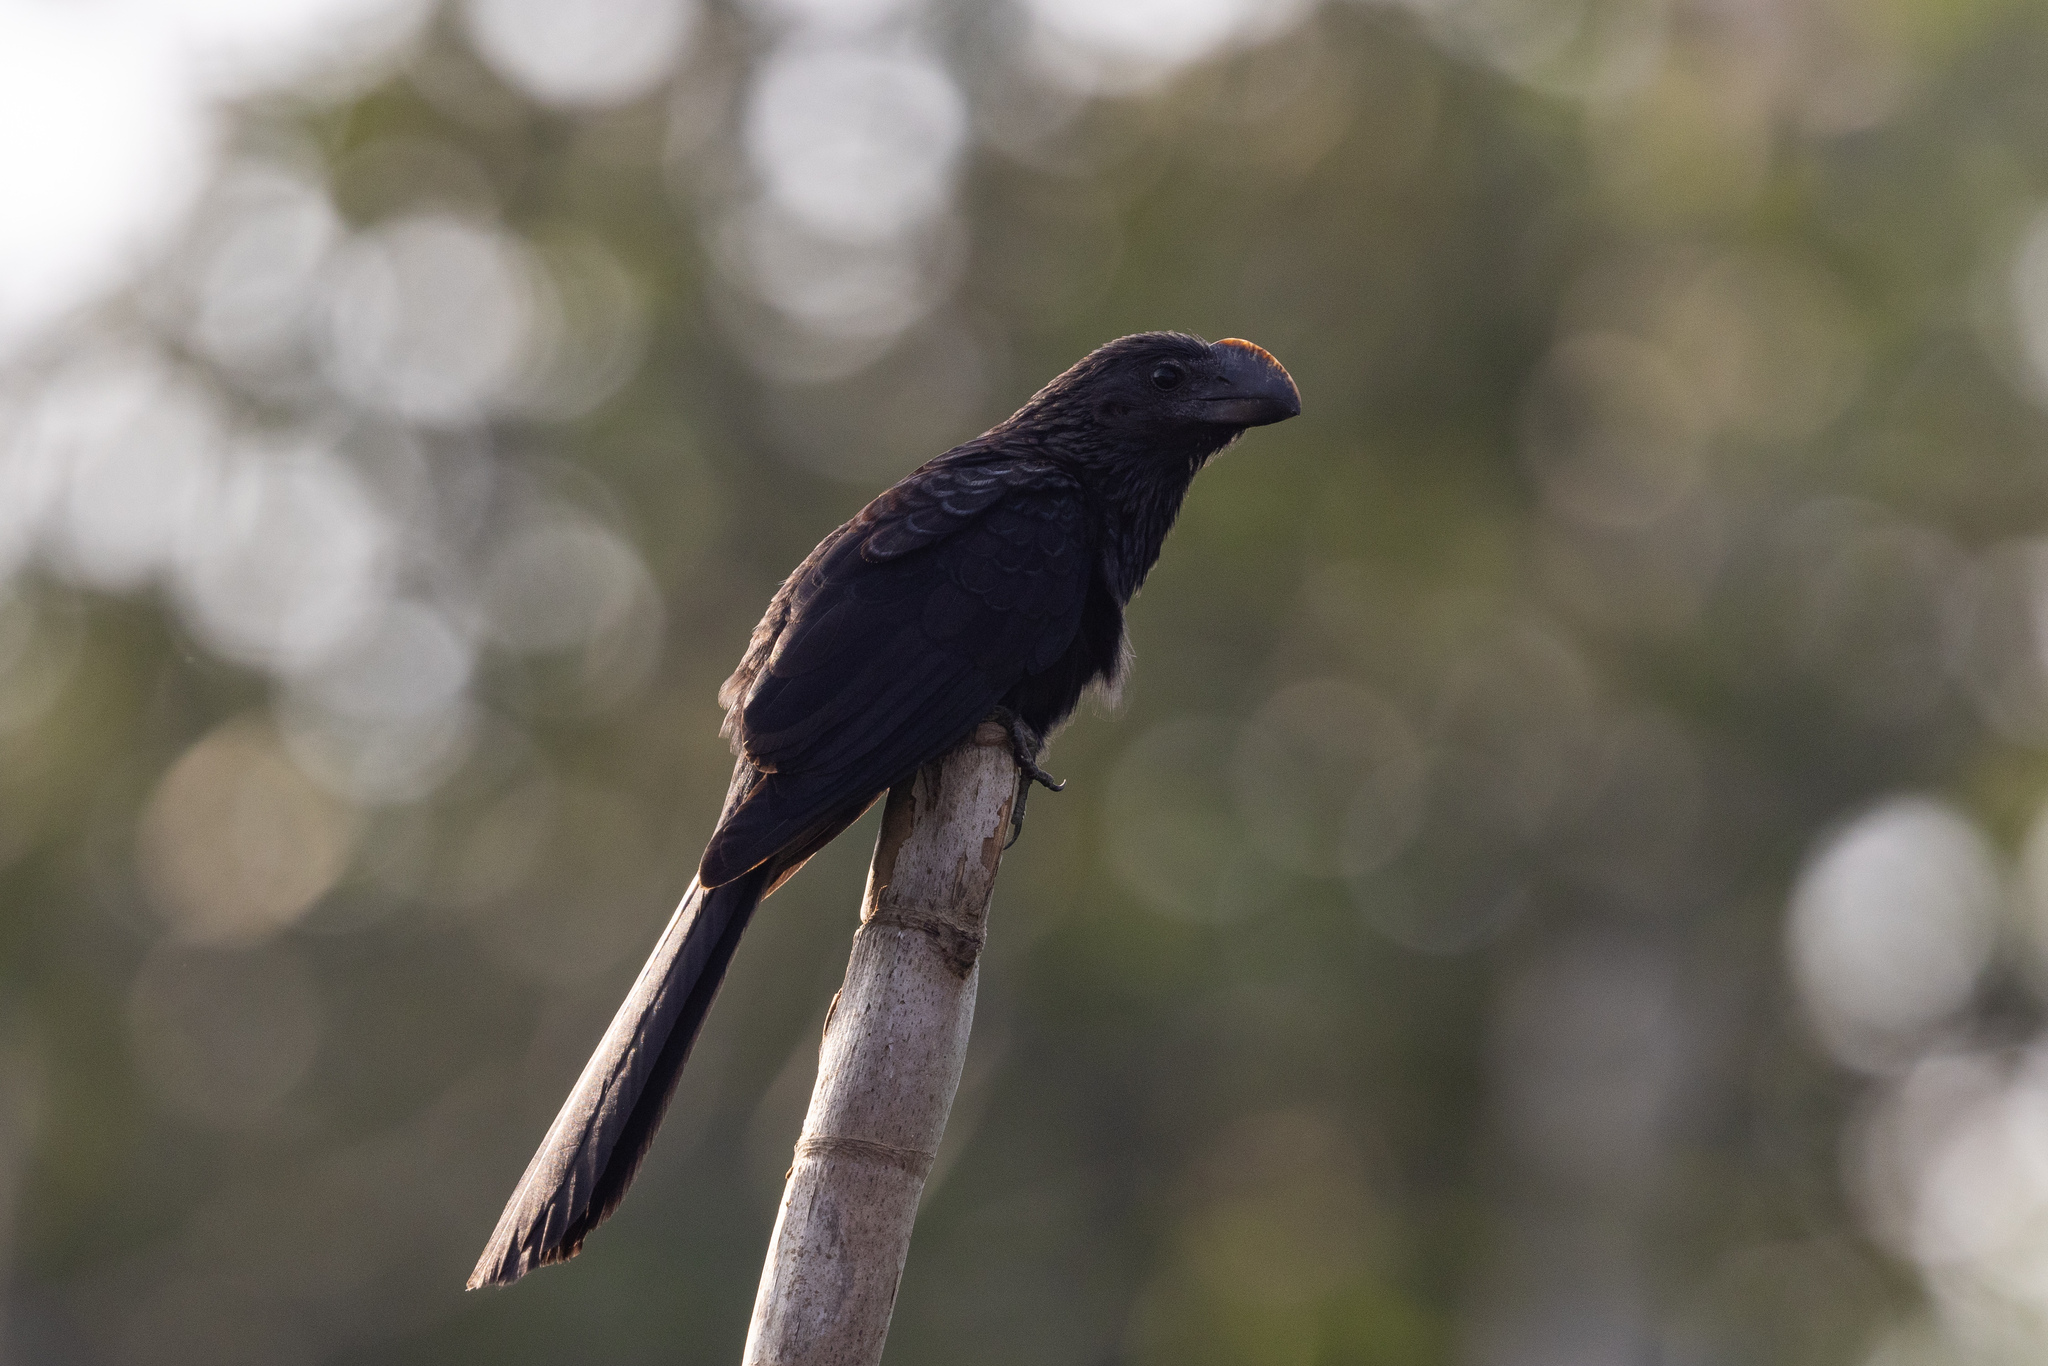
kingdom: Animalia
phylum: Chordata
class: Aves
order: Cuculiformes
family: Cuculidae
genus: Crotophaga
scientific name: Crotophaga ani
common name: Smooth-billed ani
